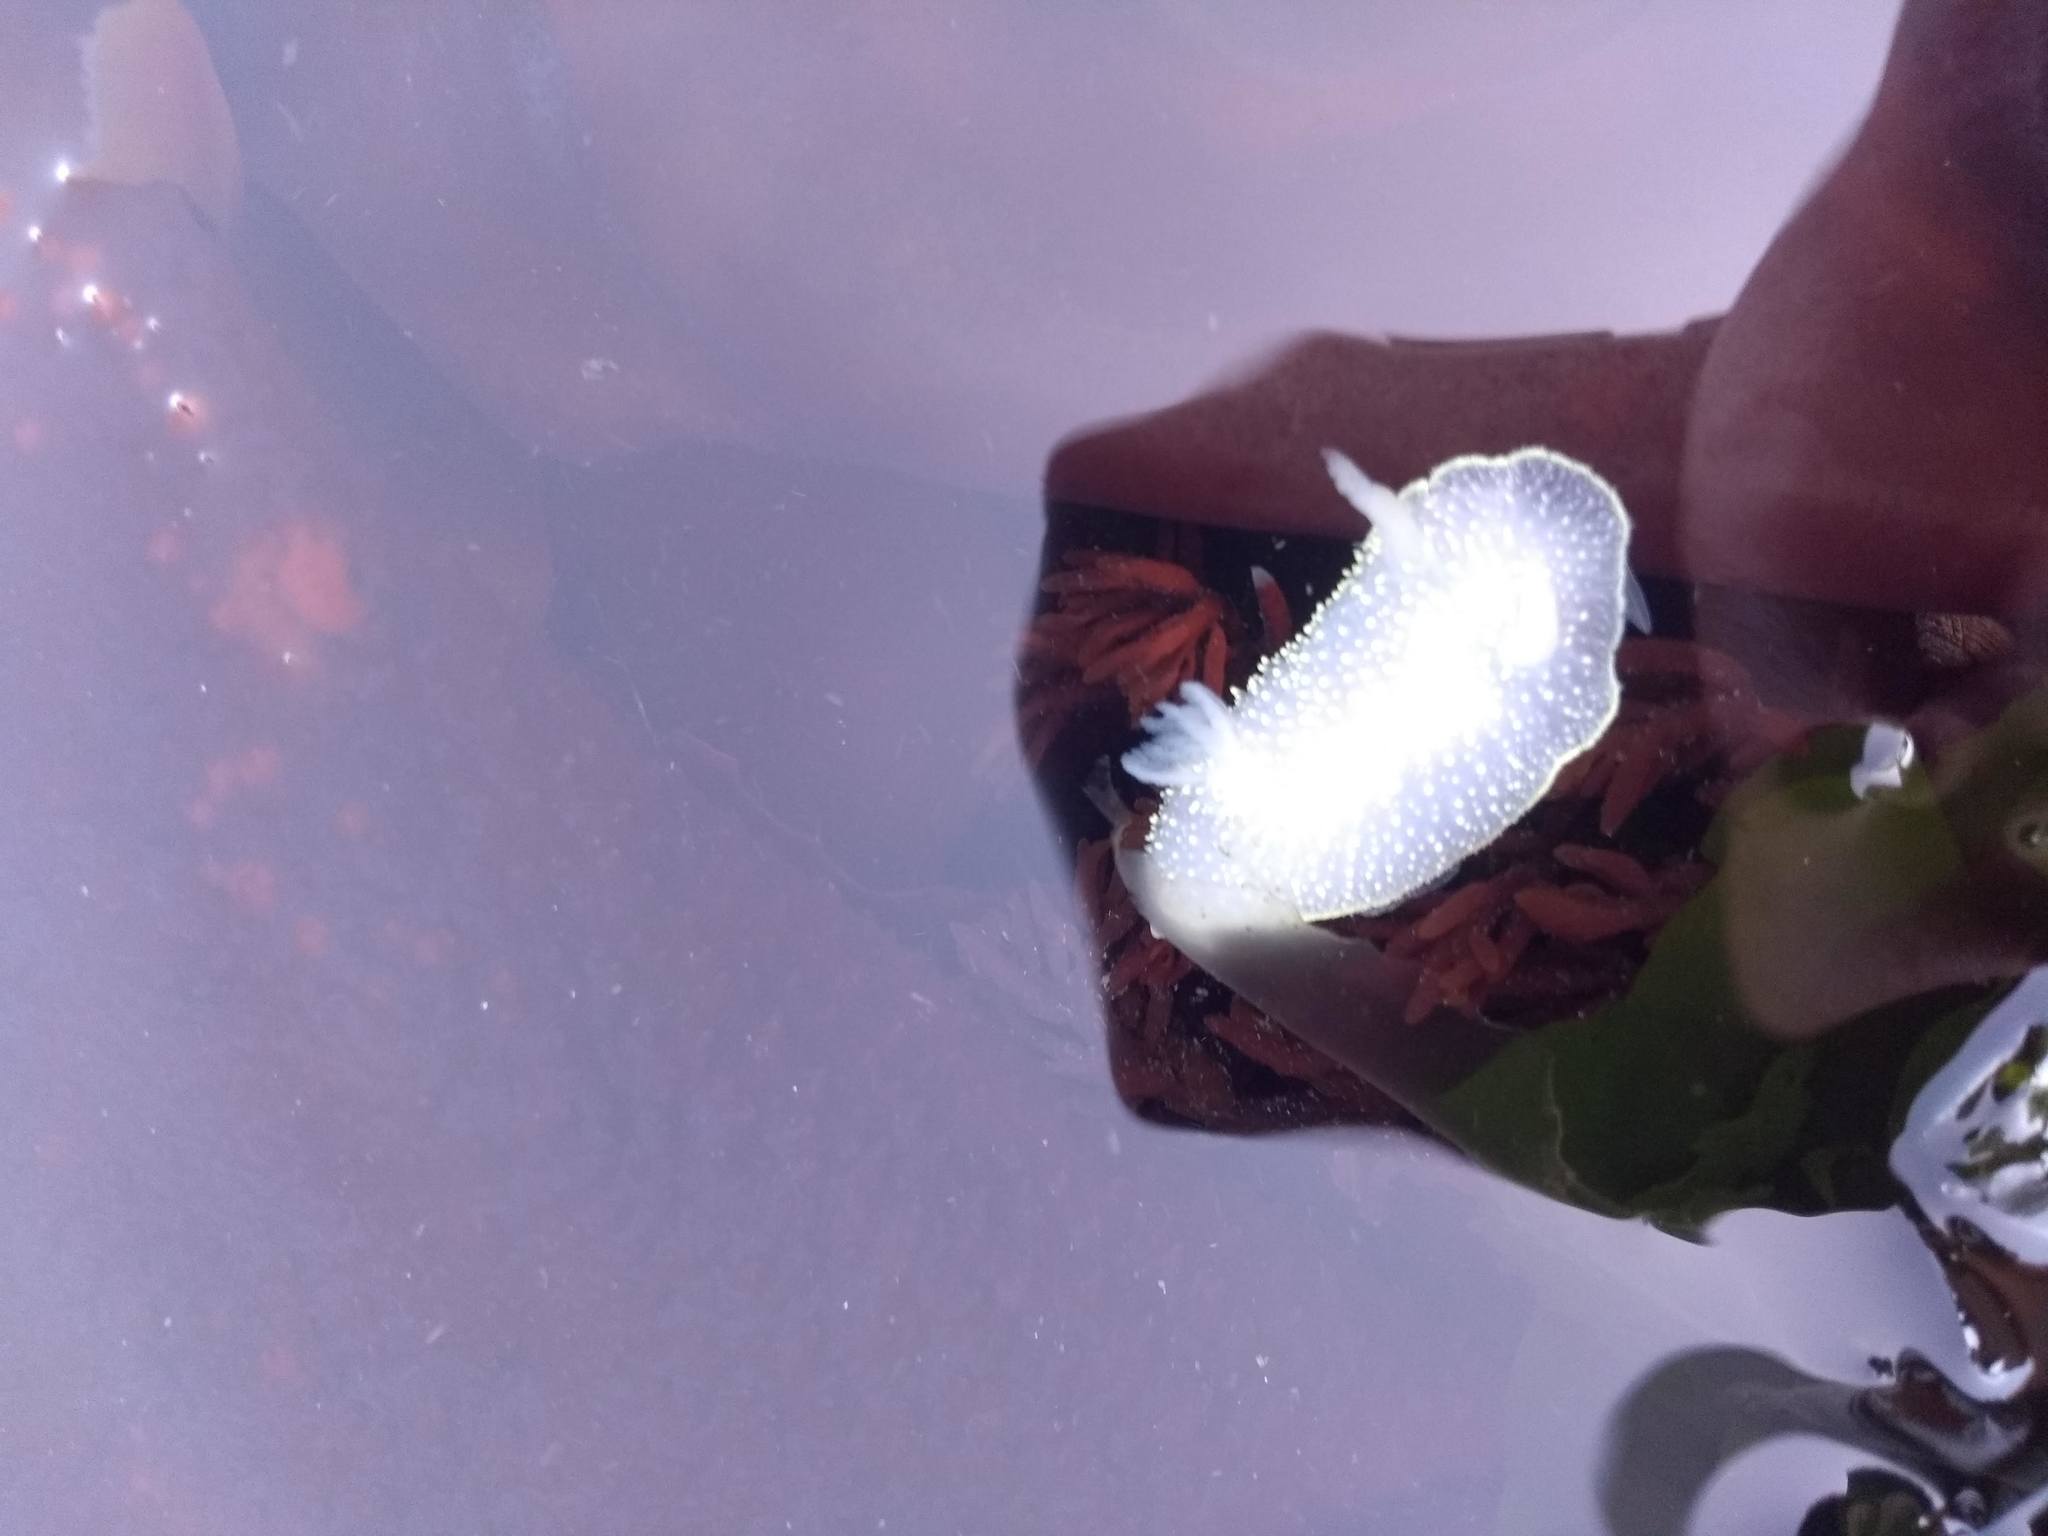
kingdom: Animalia
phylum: Mollusca
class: Gastropoda
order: Nudibranchia
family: Onchidorididae
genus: Acanthodoris
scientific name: Acanthodoris hudsoni
